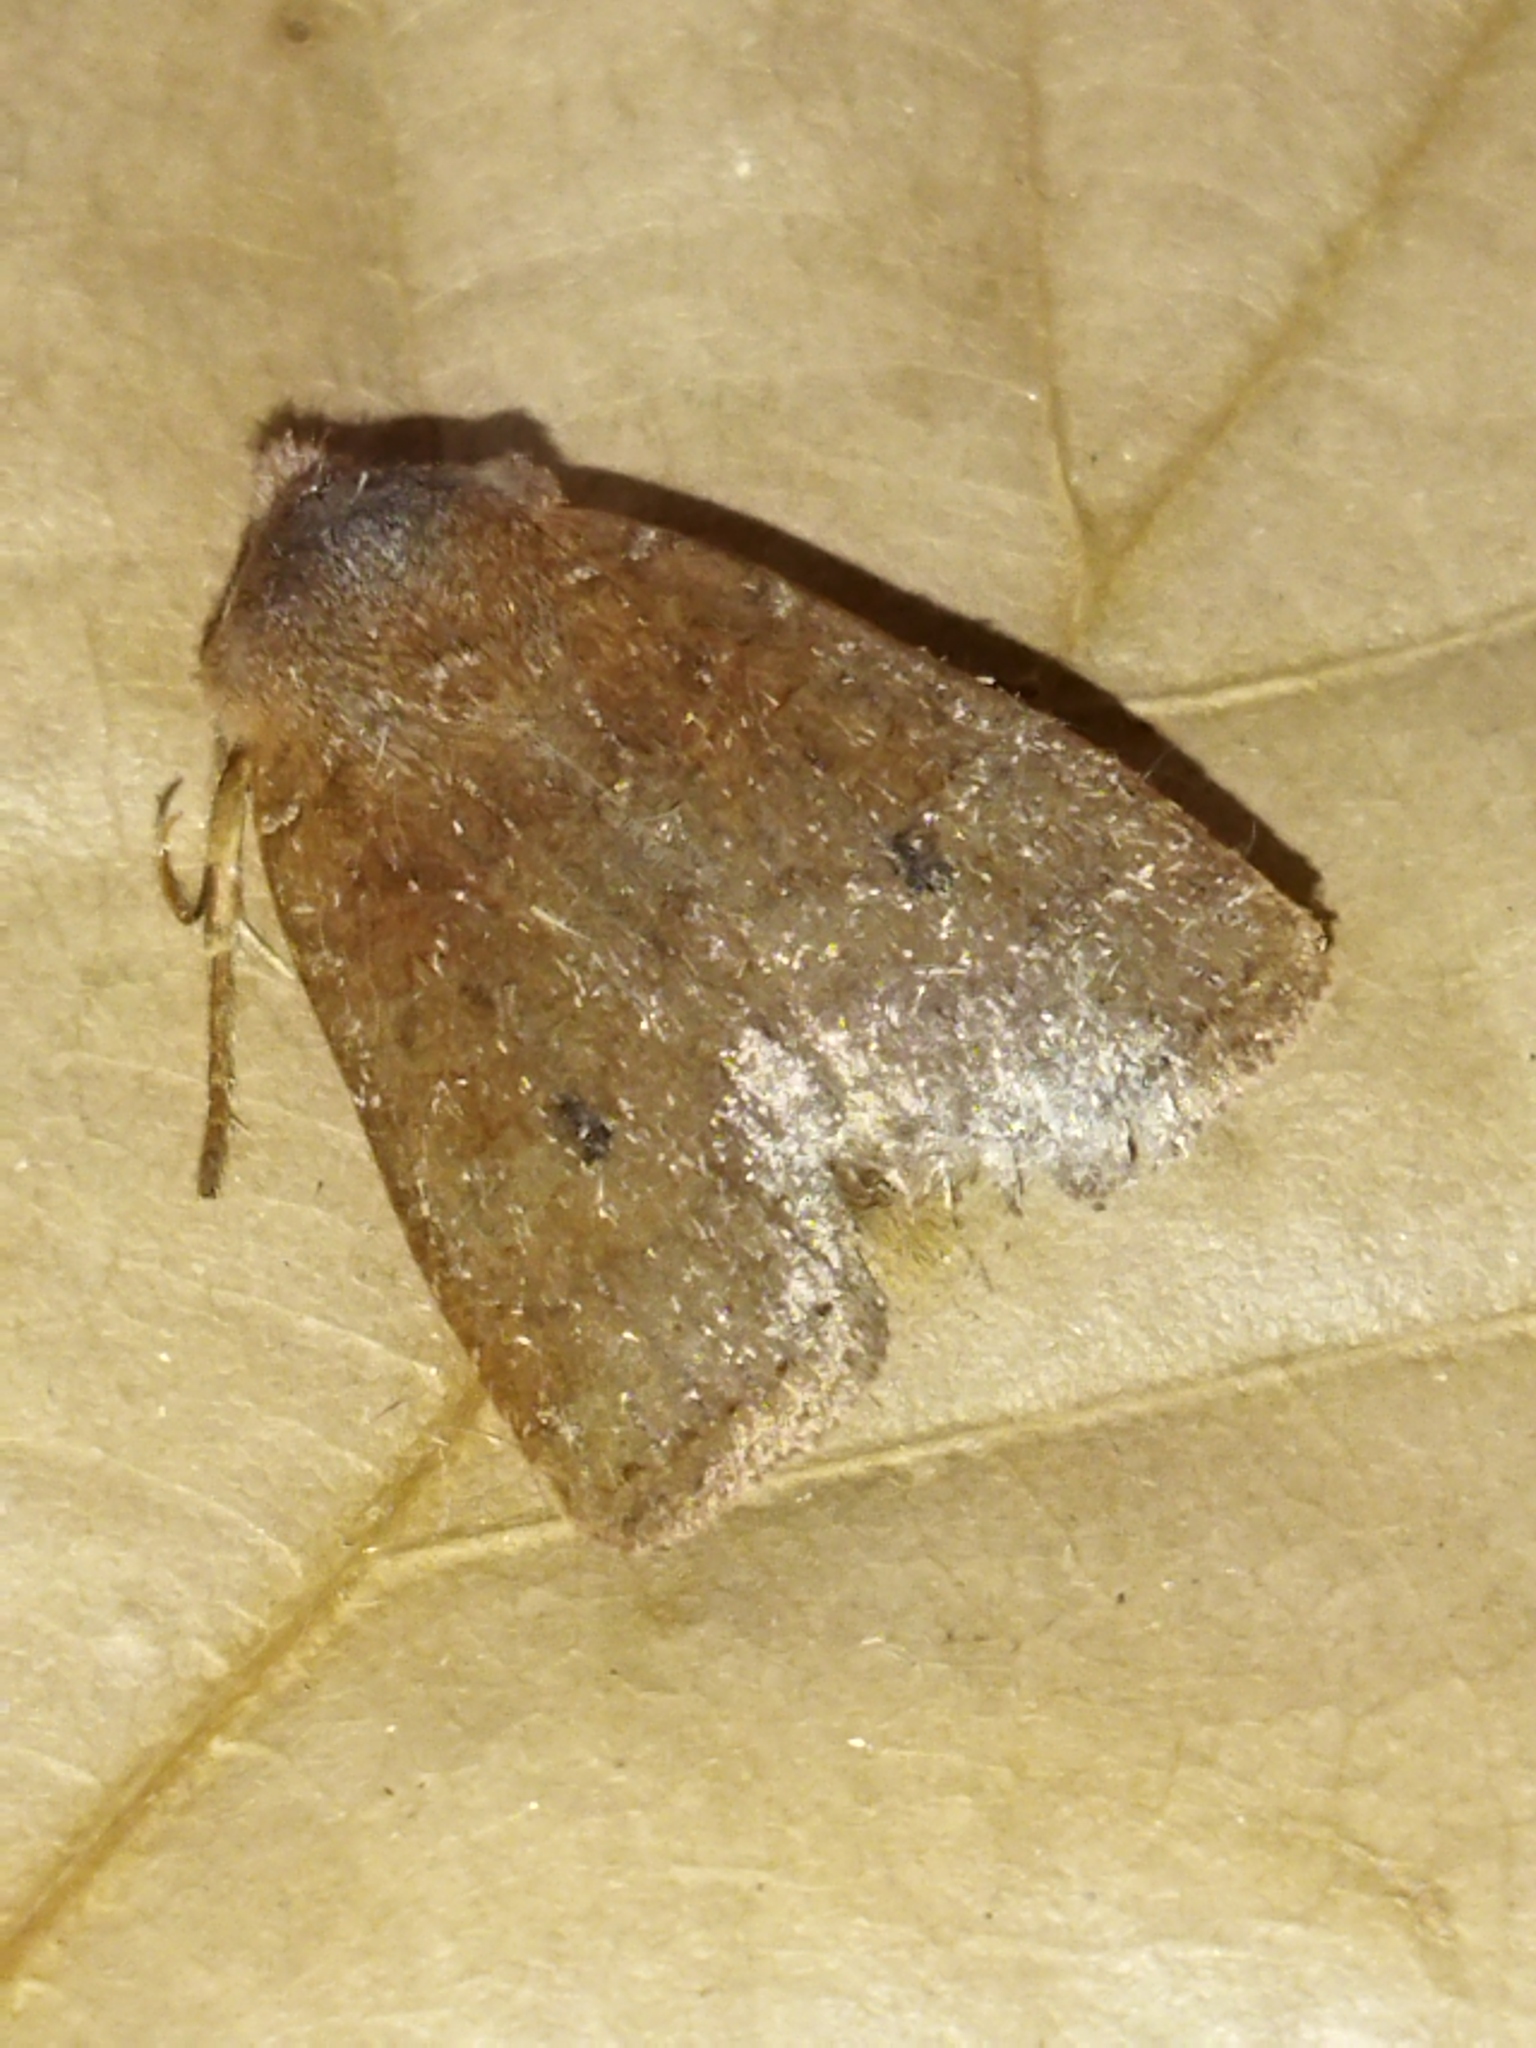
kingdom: Animalia
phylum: Arthropoda
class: Insecta
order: Lepidoptera
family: Noctuidae
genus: Conistra
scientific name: Conistra vaccinii
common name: Chestnut
